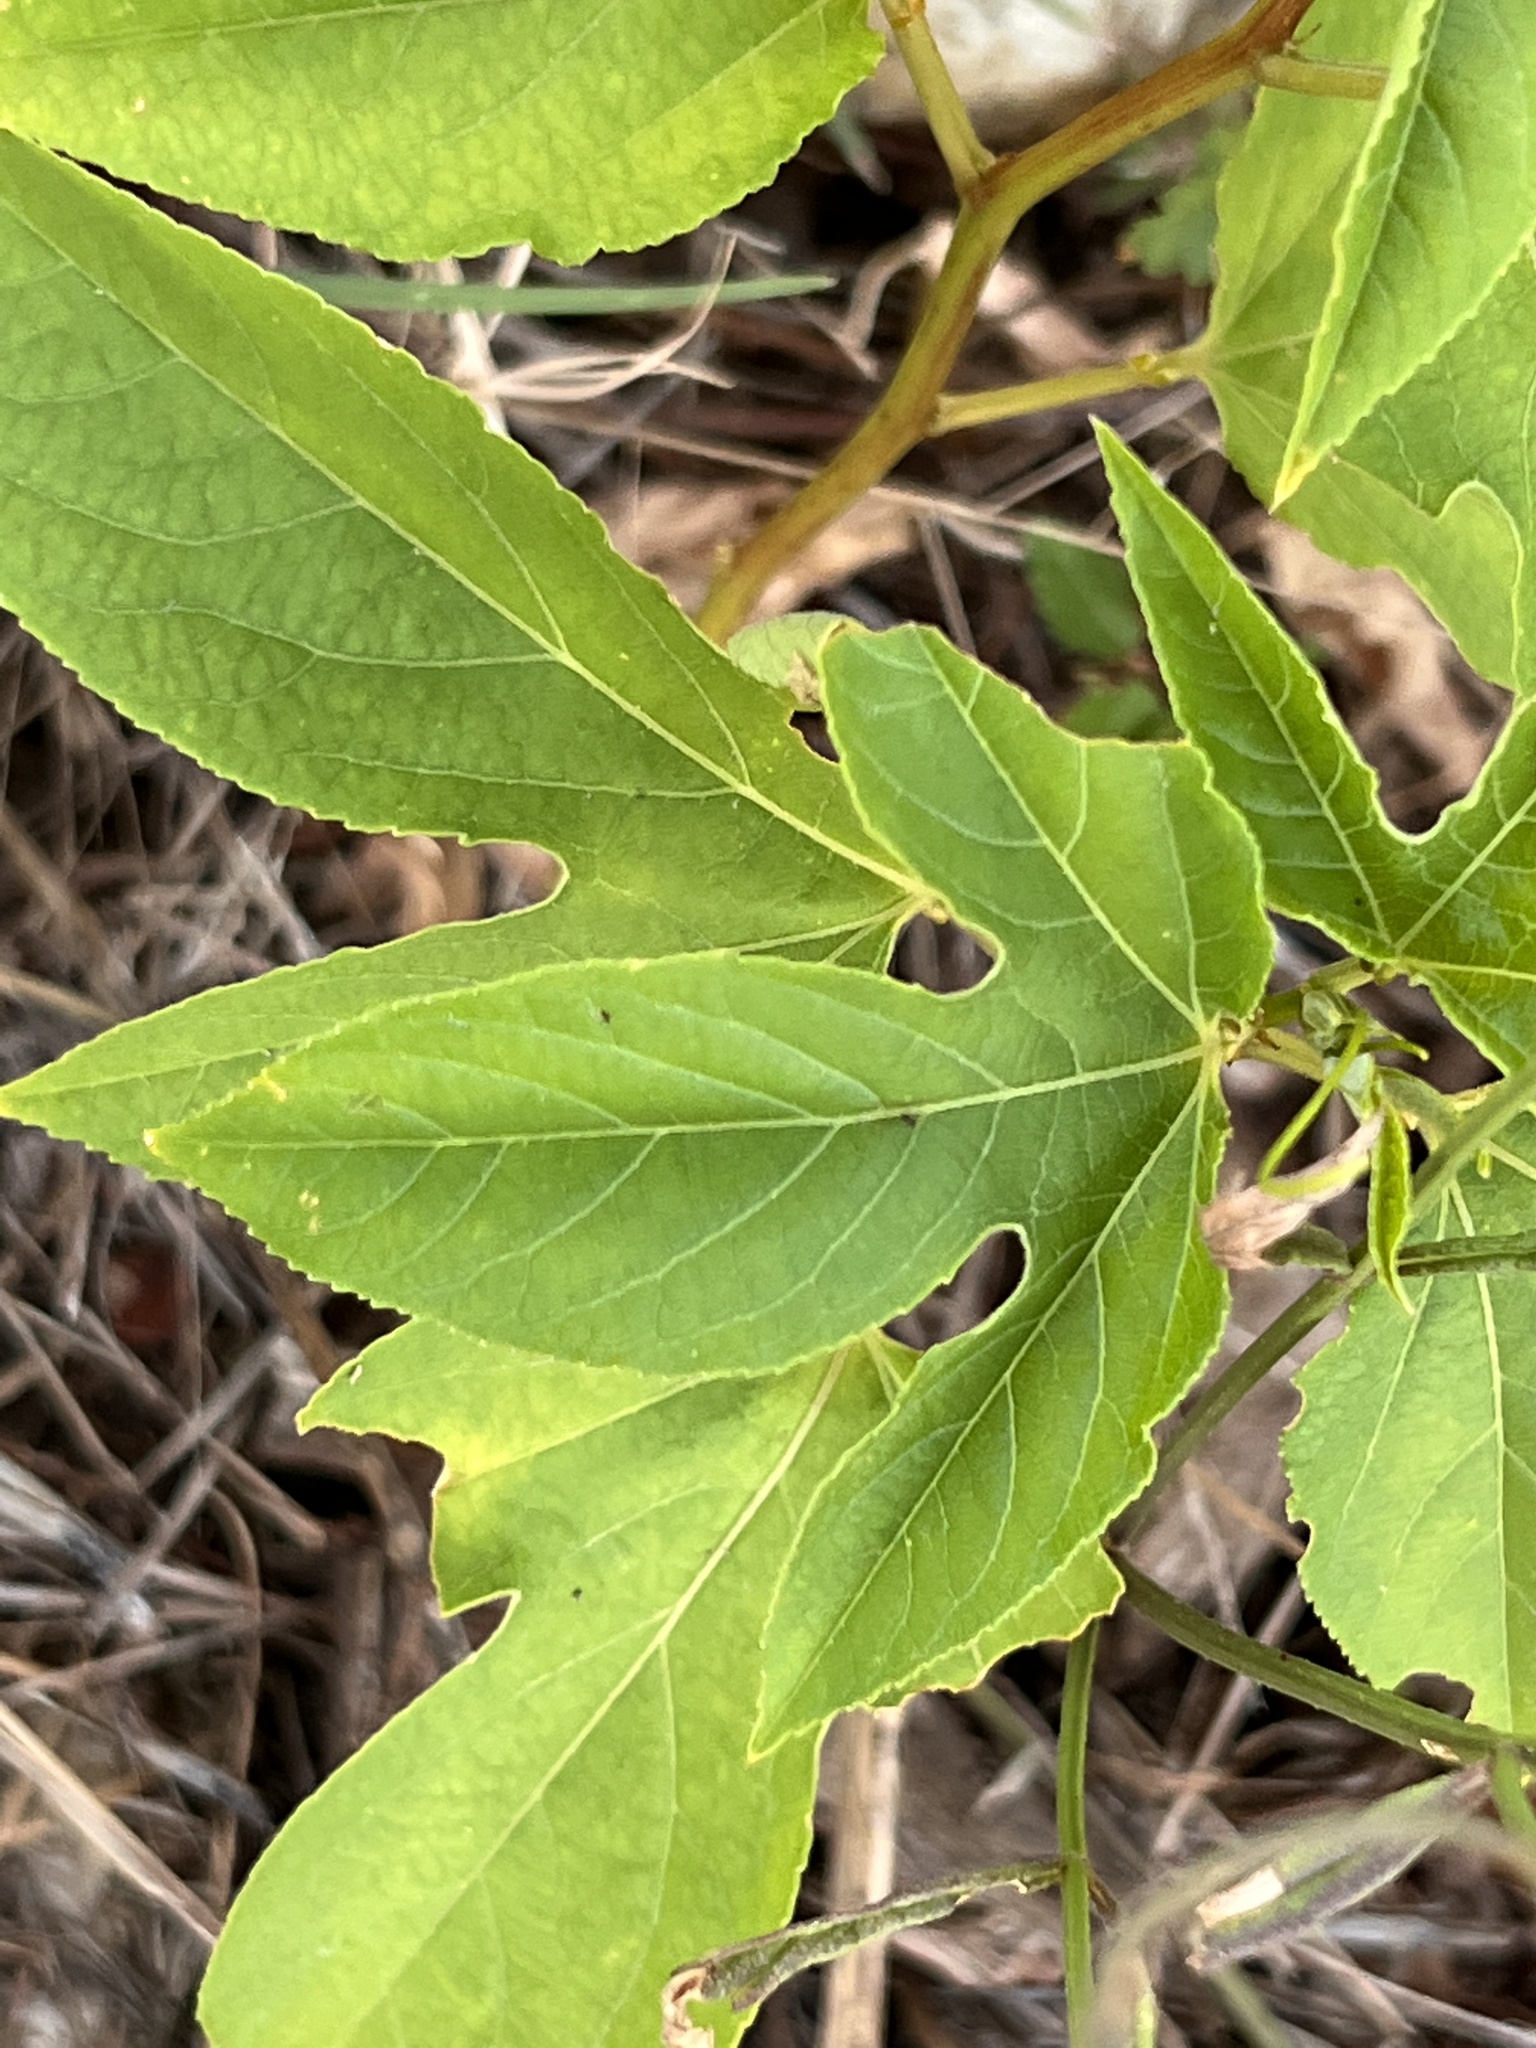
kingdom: Plantae
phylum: Tracheophyta
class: Magnoliopsida
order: Malpighiales
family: Passifloraceae
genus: Passiflora
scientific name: Passiflora incarnata
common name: Apricot-vine
